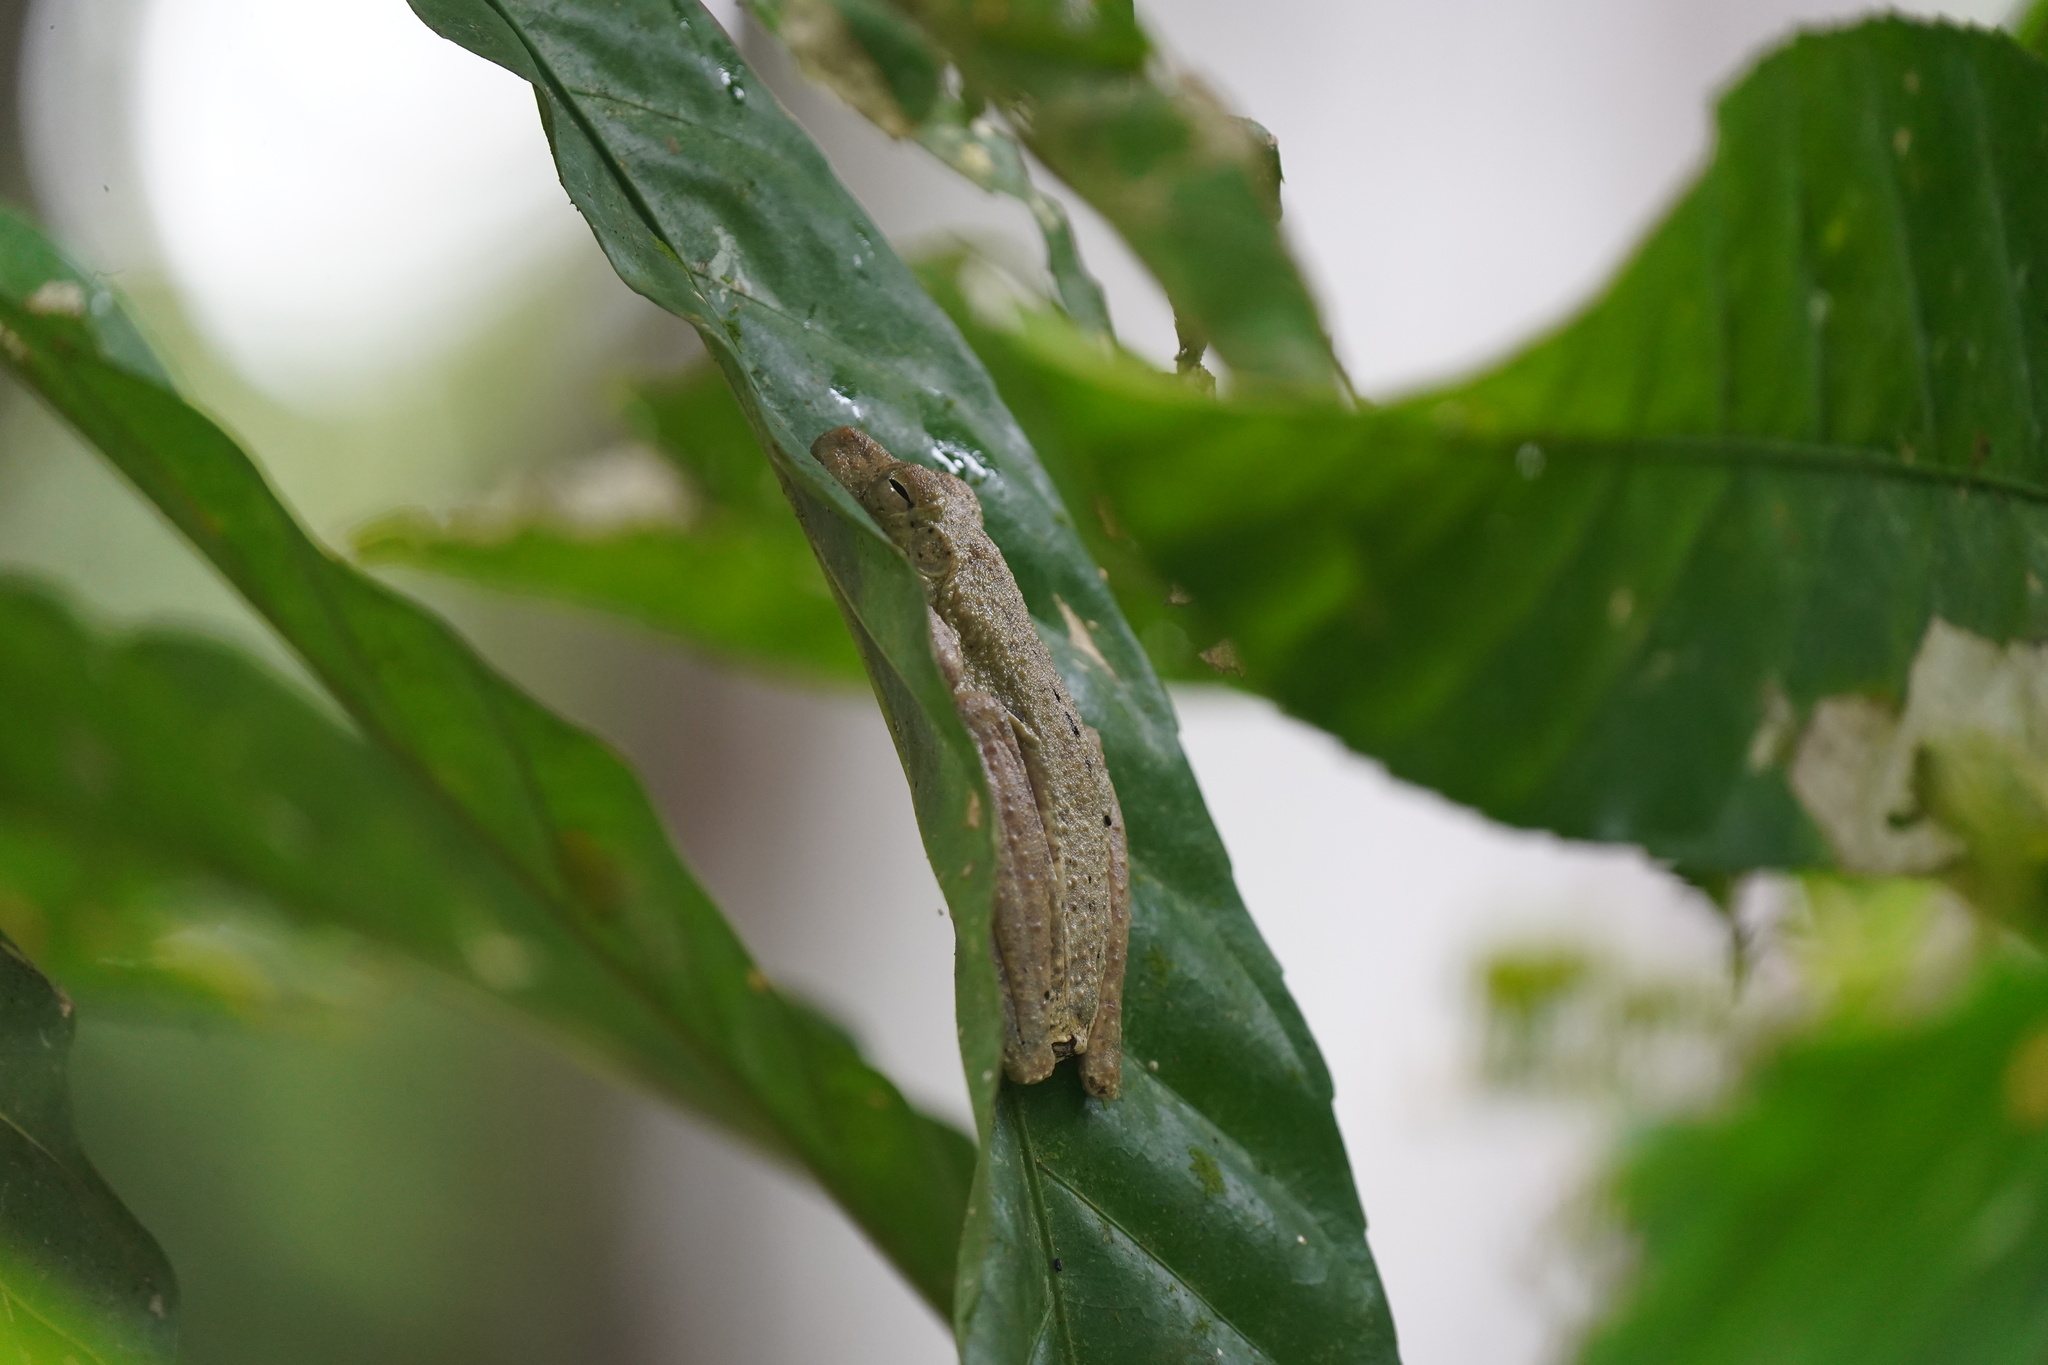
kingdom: Animalia
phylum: Chordata
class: Amphibia
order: Anura
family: Hylidae
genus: Boana
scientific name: Boana rosenbergi
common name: Rosenberg´s gladiator treefrog
